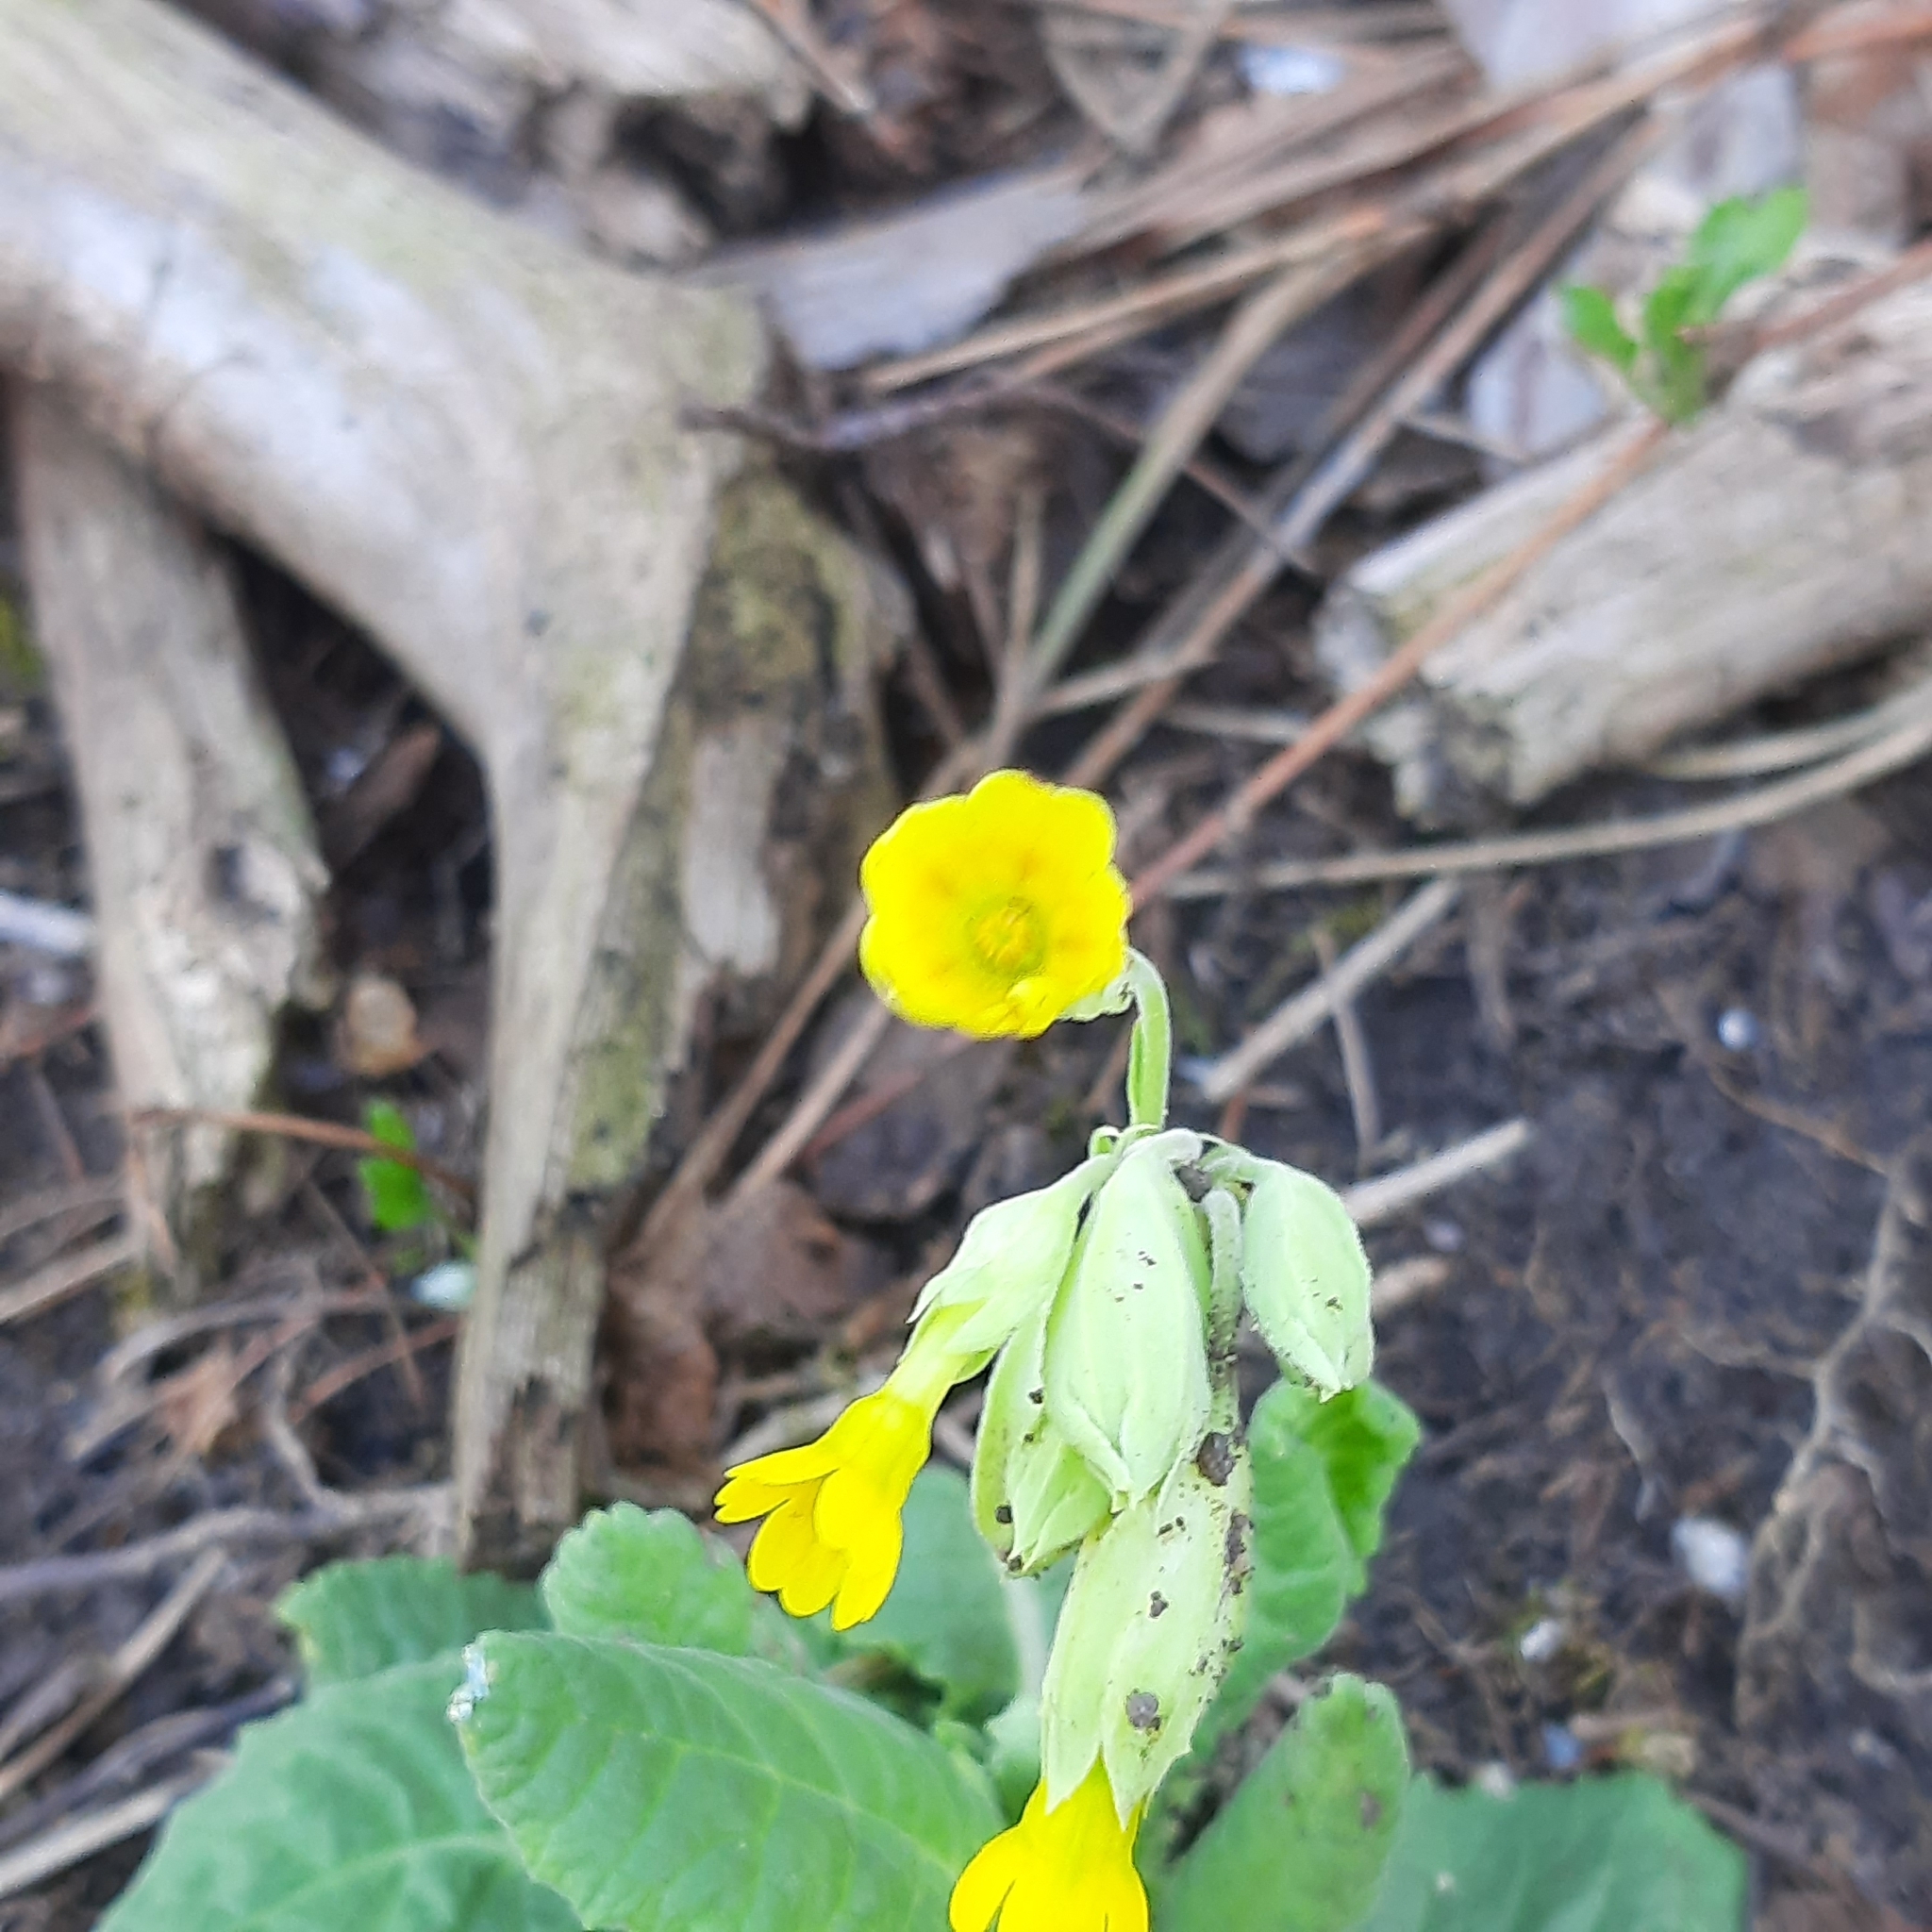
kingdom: Plantae
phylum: Tracheophyta
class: Magnoliopsida
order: Ericales
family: Primulaceae
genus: Primula
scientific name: Primula veris
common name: Cowslip
